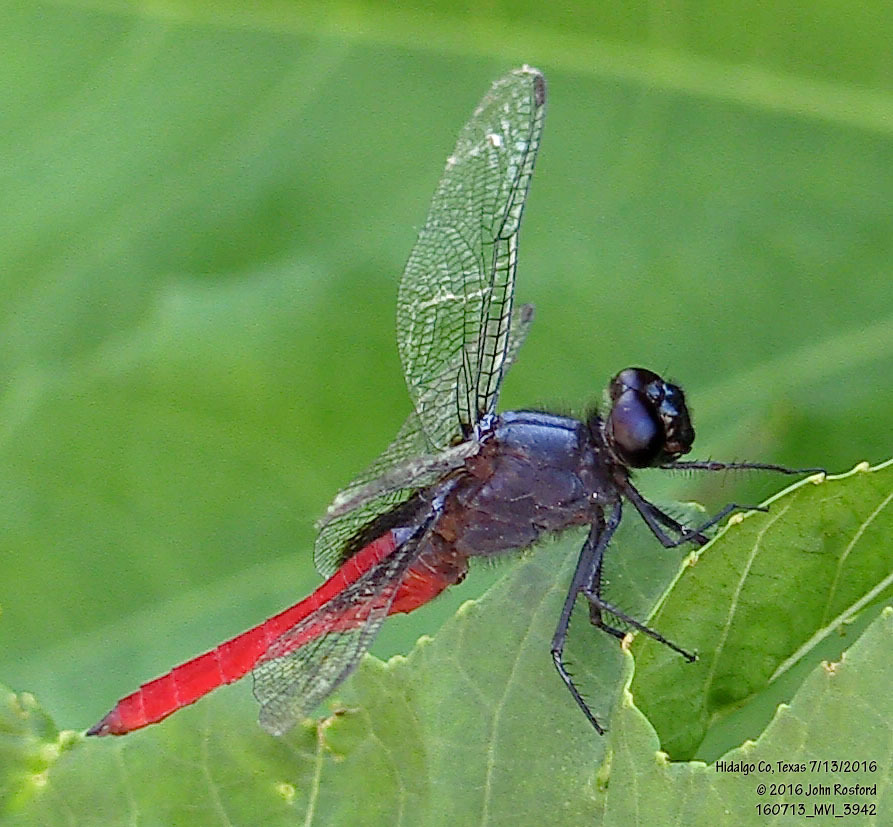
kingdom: Animalia
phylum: Arthropoda
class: Insecta
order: Odonata
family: Libellulidae
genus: Planiplax
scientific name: Planiplax sanguiniventris
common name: Mexican scarlet-tail
